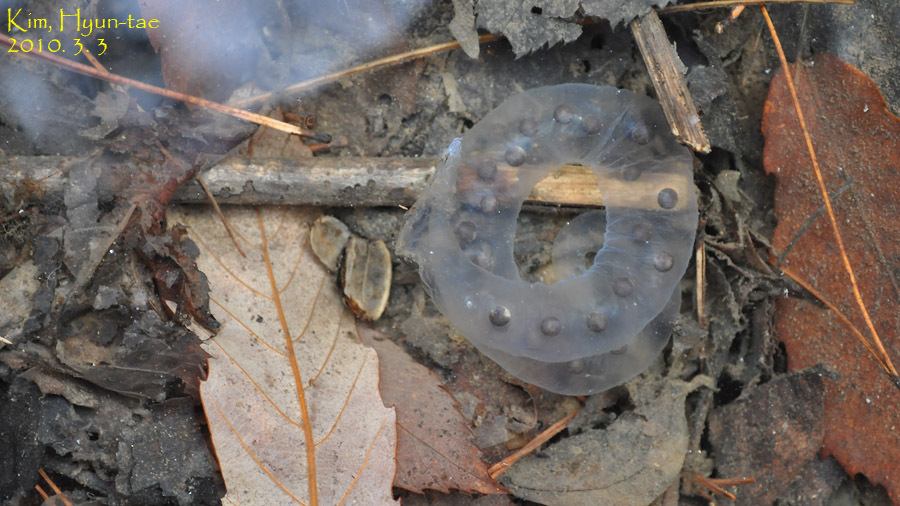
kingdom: Animalia
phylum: Chordata
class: Amphibia
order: Caudata
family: Hynobiidae
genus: Hynobius
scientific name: Hynobius leechii
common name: Gensan salamander
